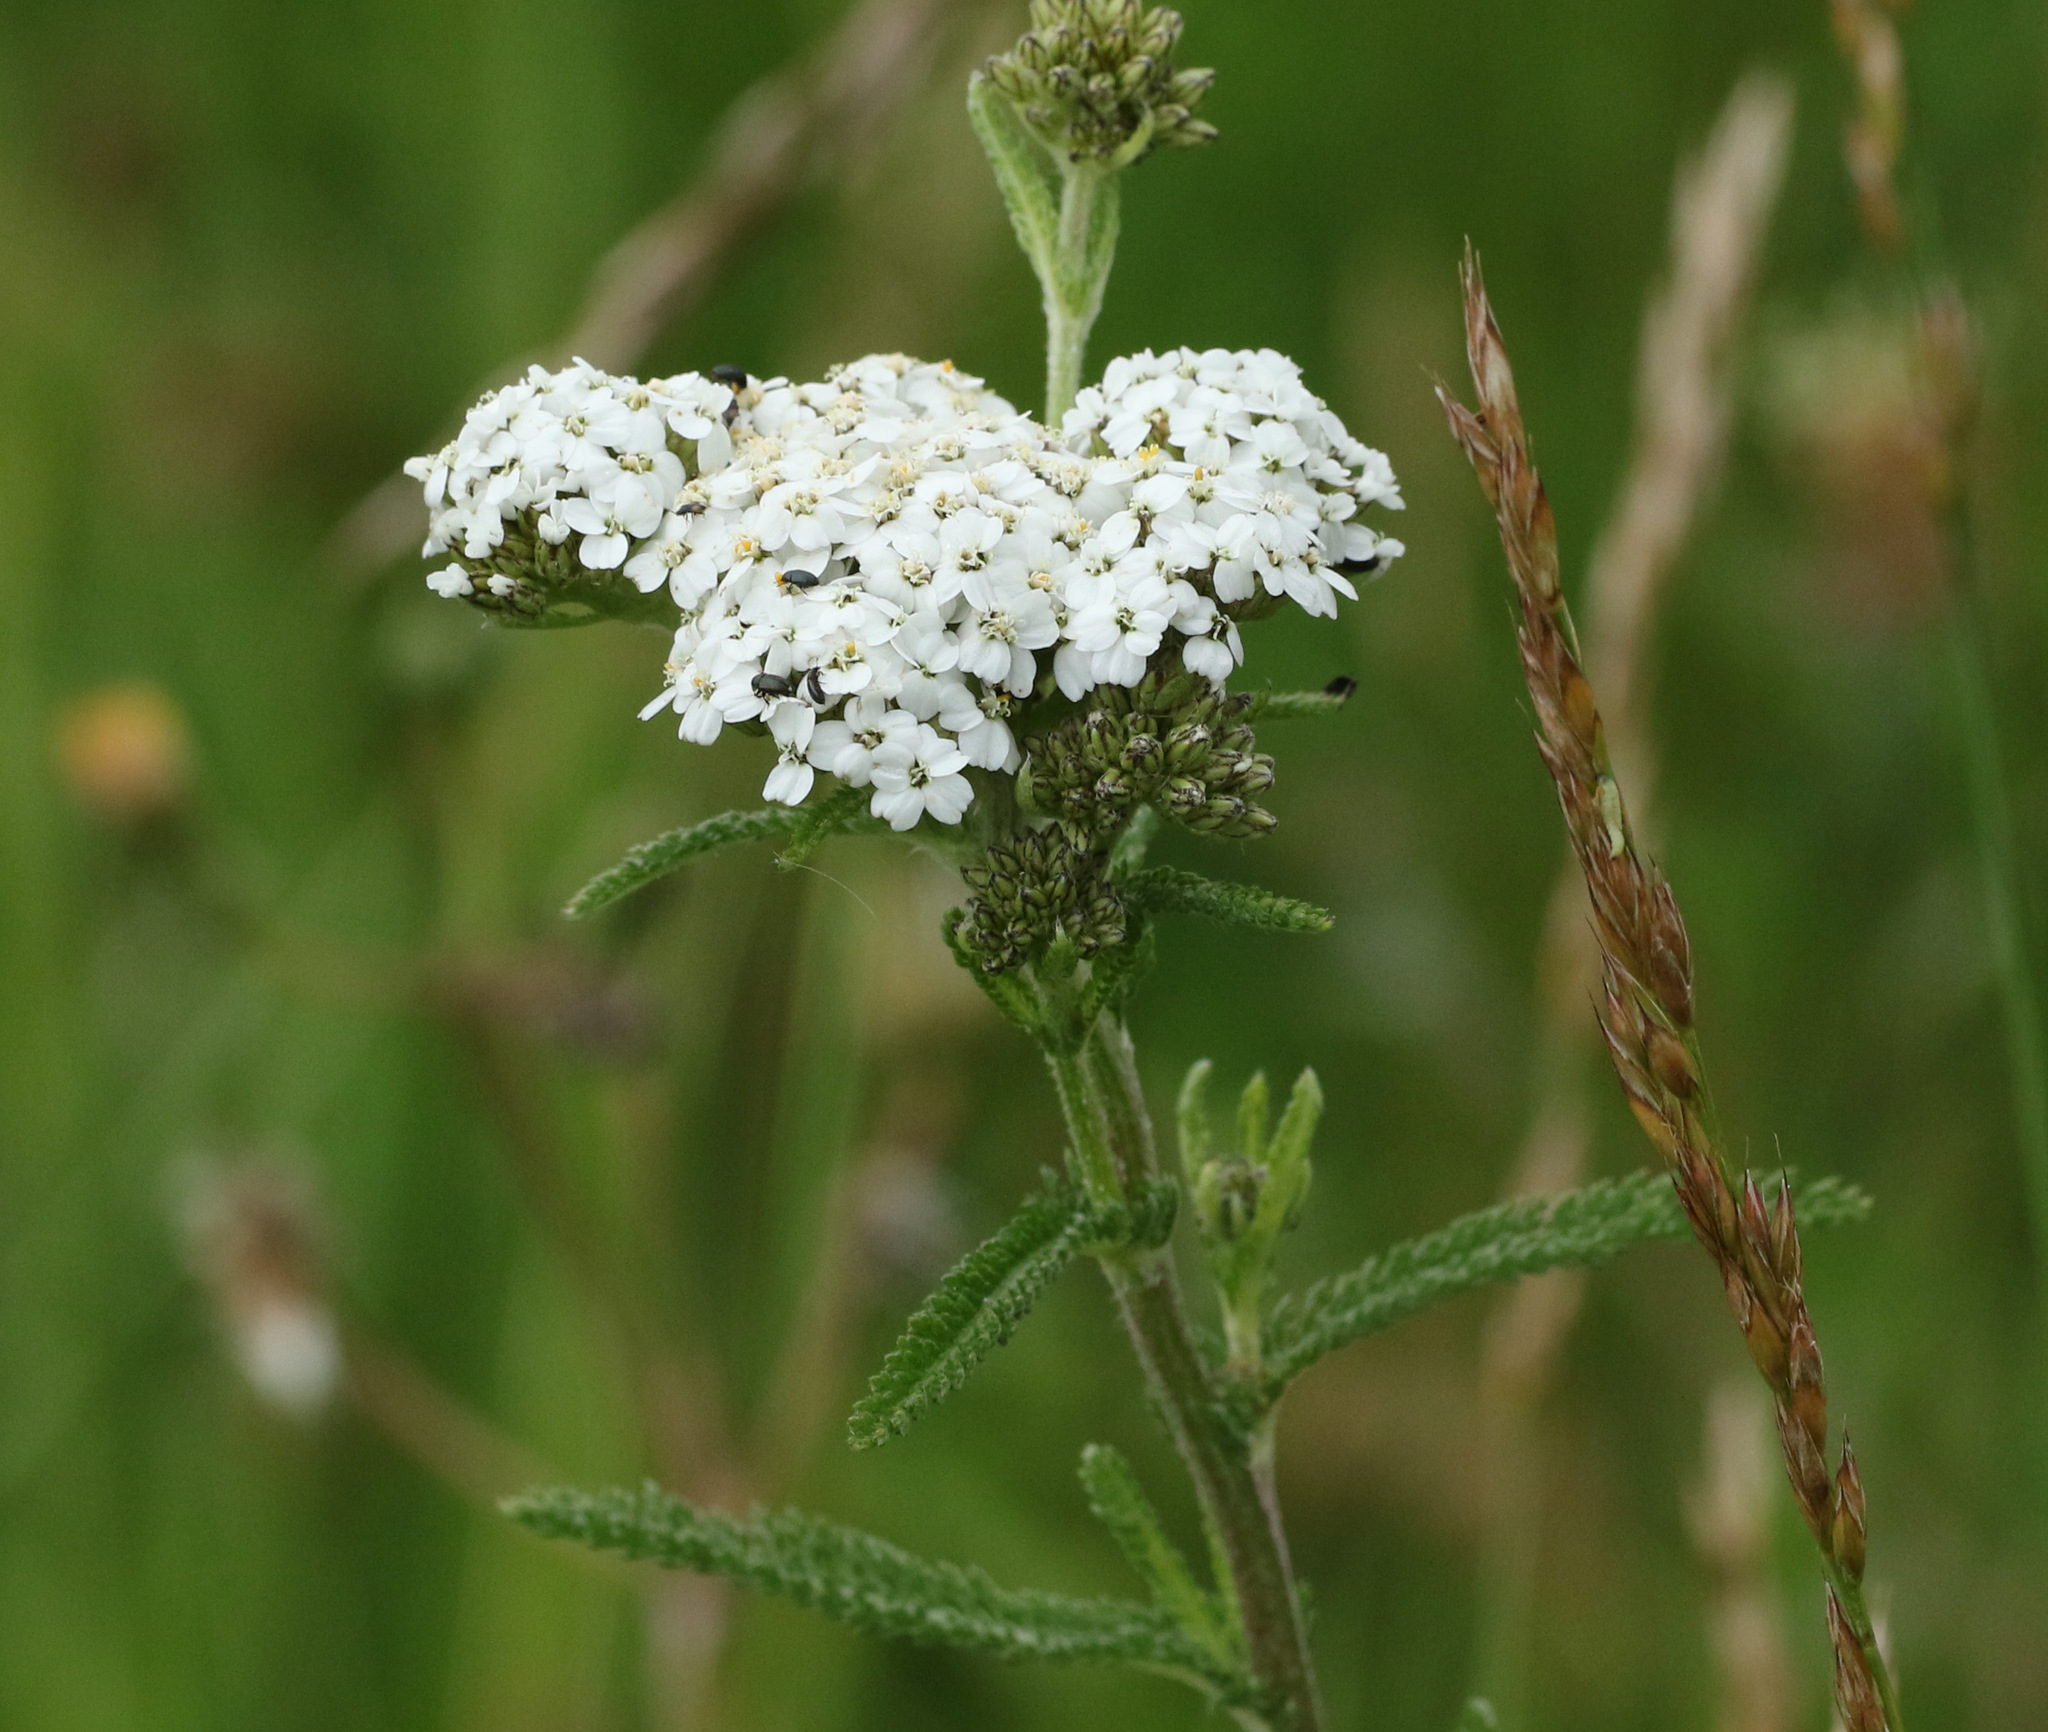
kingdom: Plantae
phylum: Tracheophyta
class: Magnoliopsida
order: Asterales
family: Asteraceae
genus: Achillea
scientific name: Achillea millefolium
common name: Yarrow
